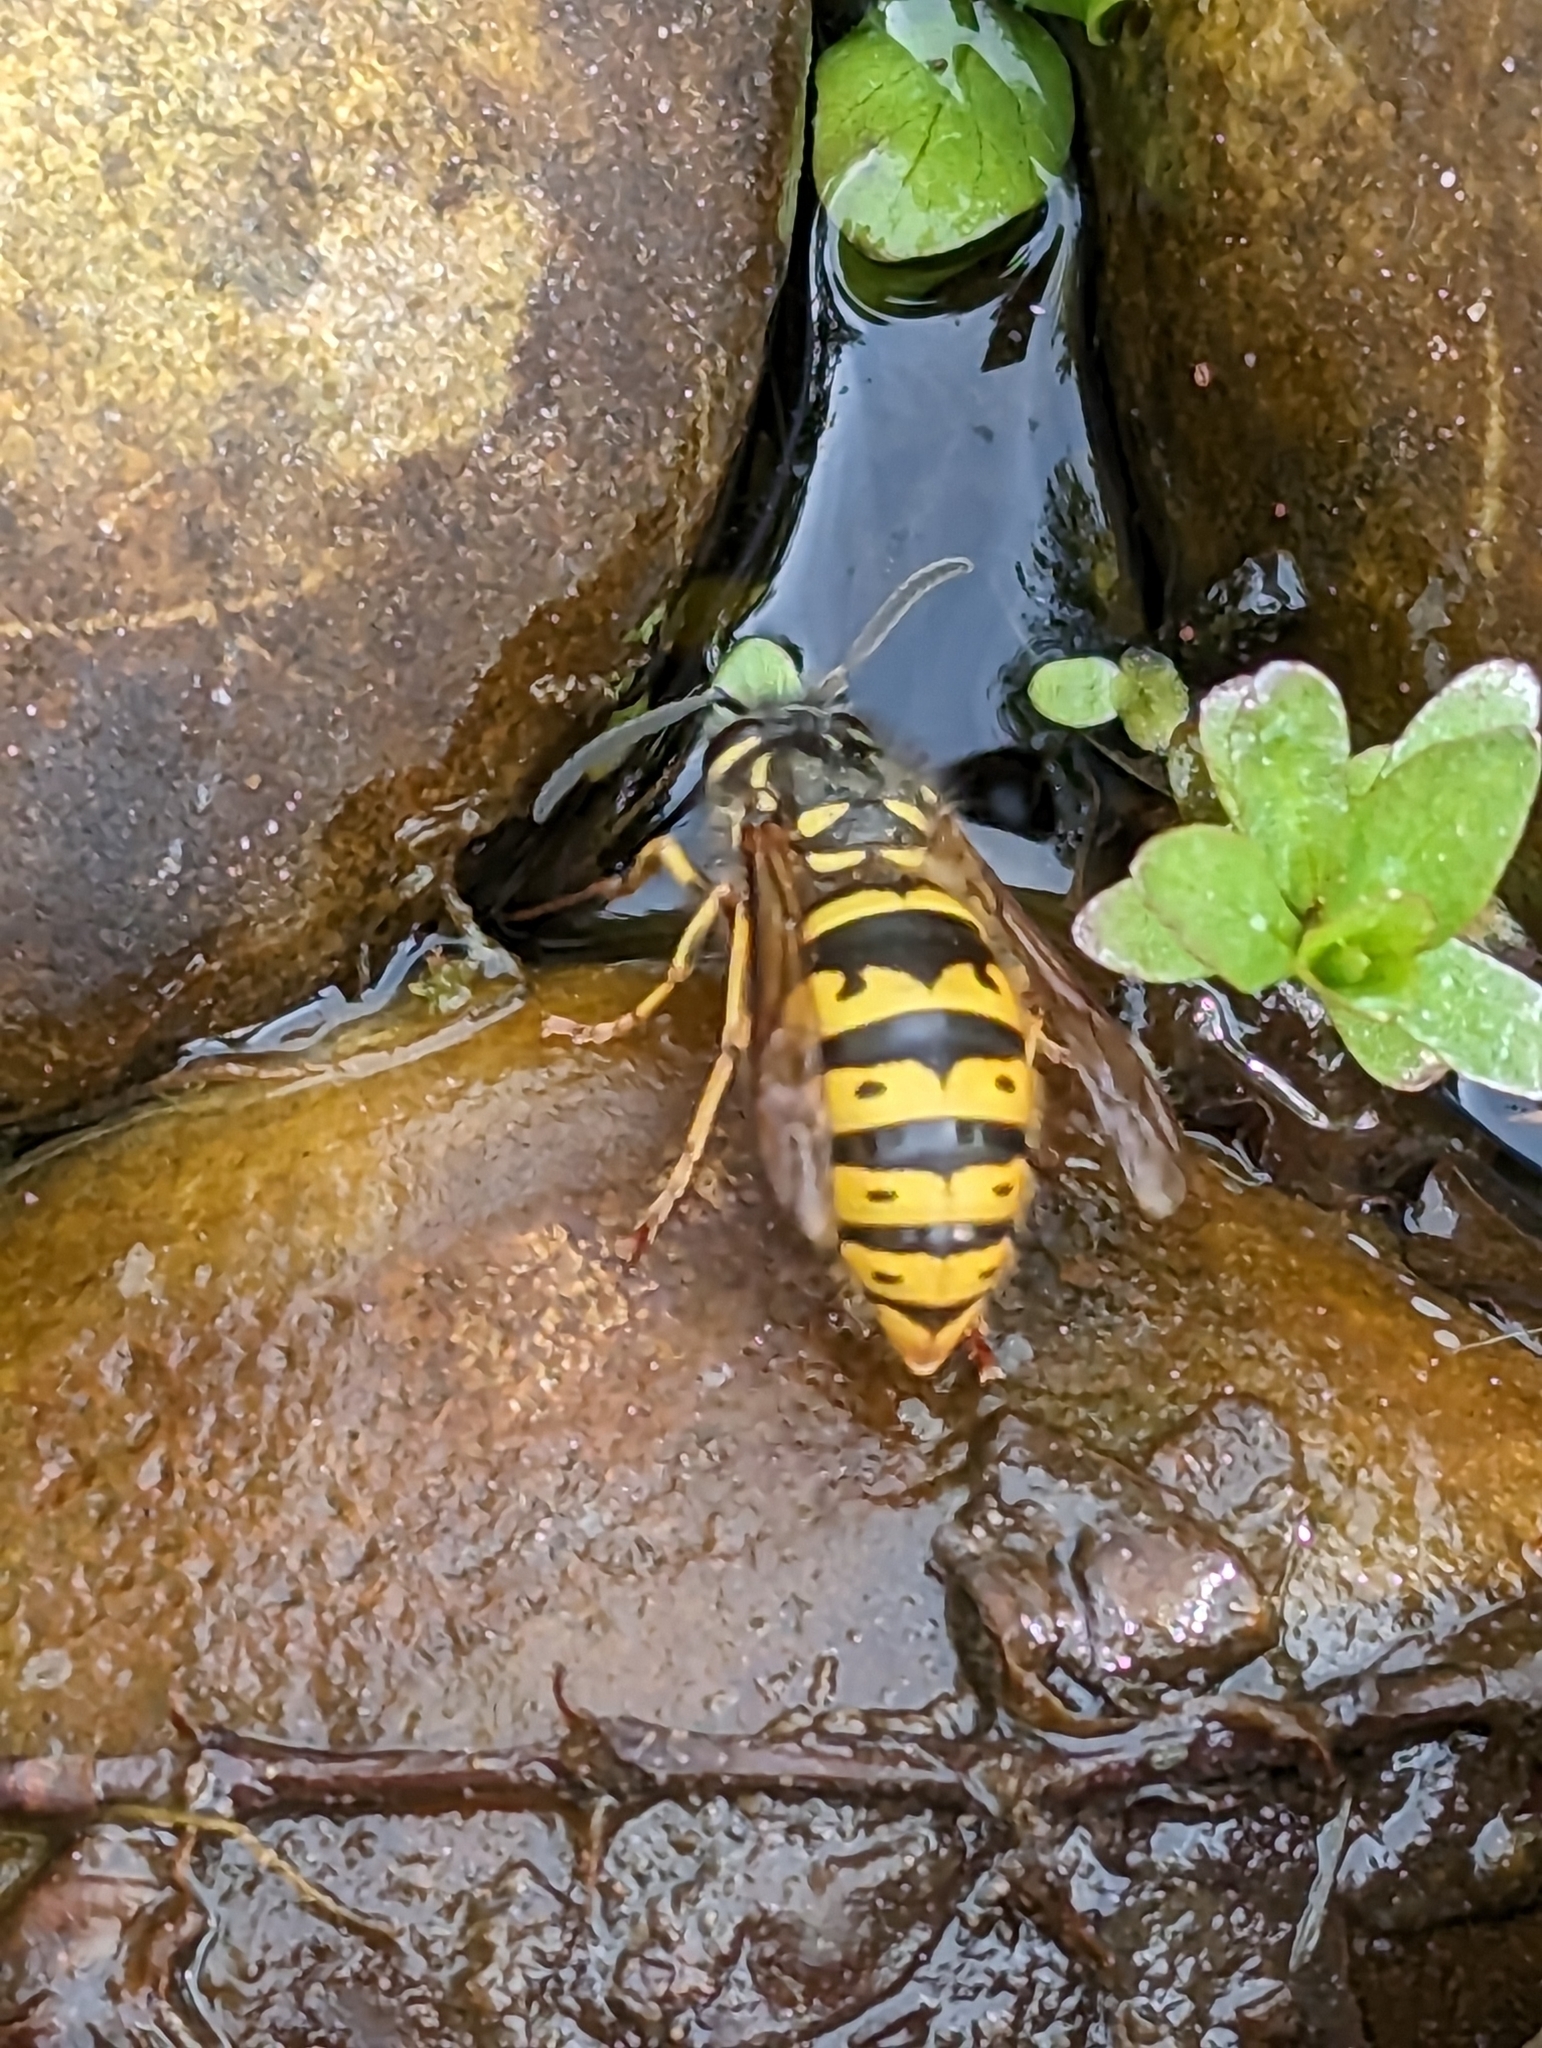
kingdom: Animalia
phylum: Arthropoda
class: Insecta
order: Hymenoptera
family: Vespidae
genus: Vespula
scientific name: Vespula vulgaris
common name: Common wasp
